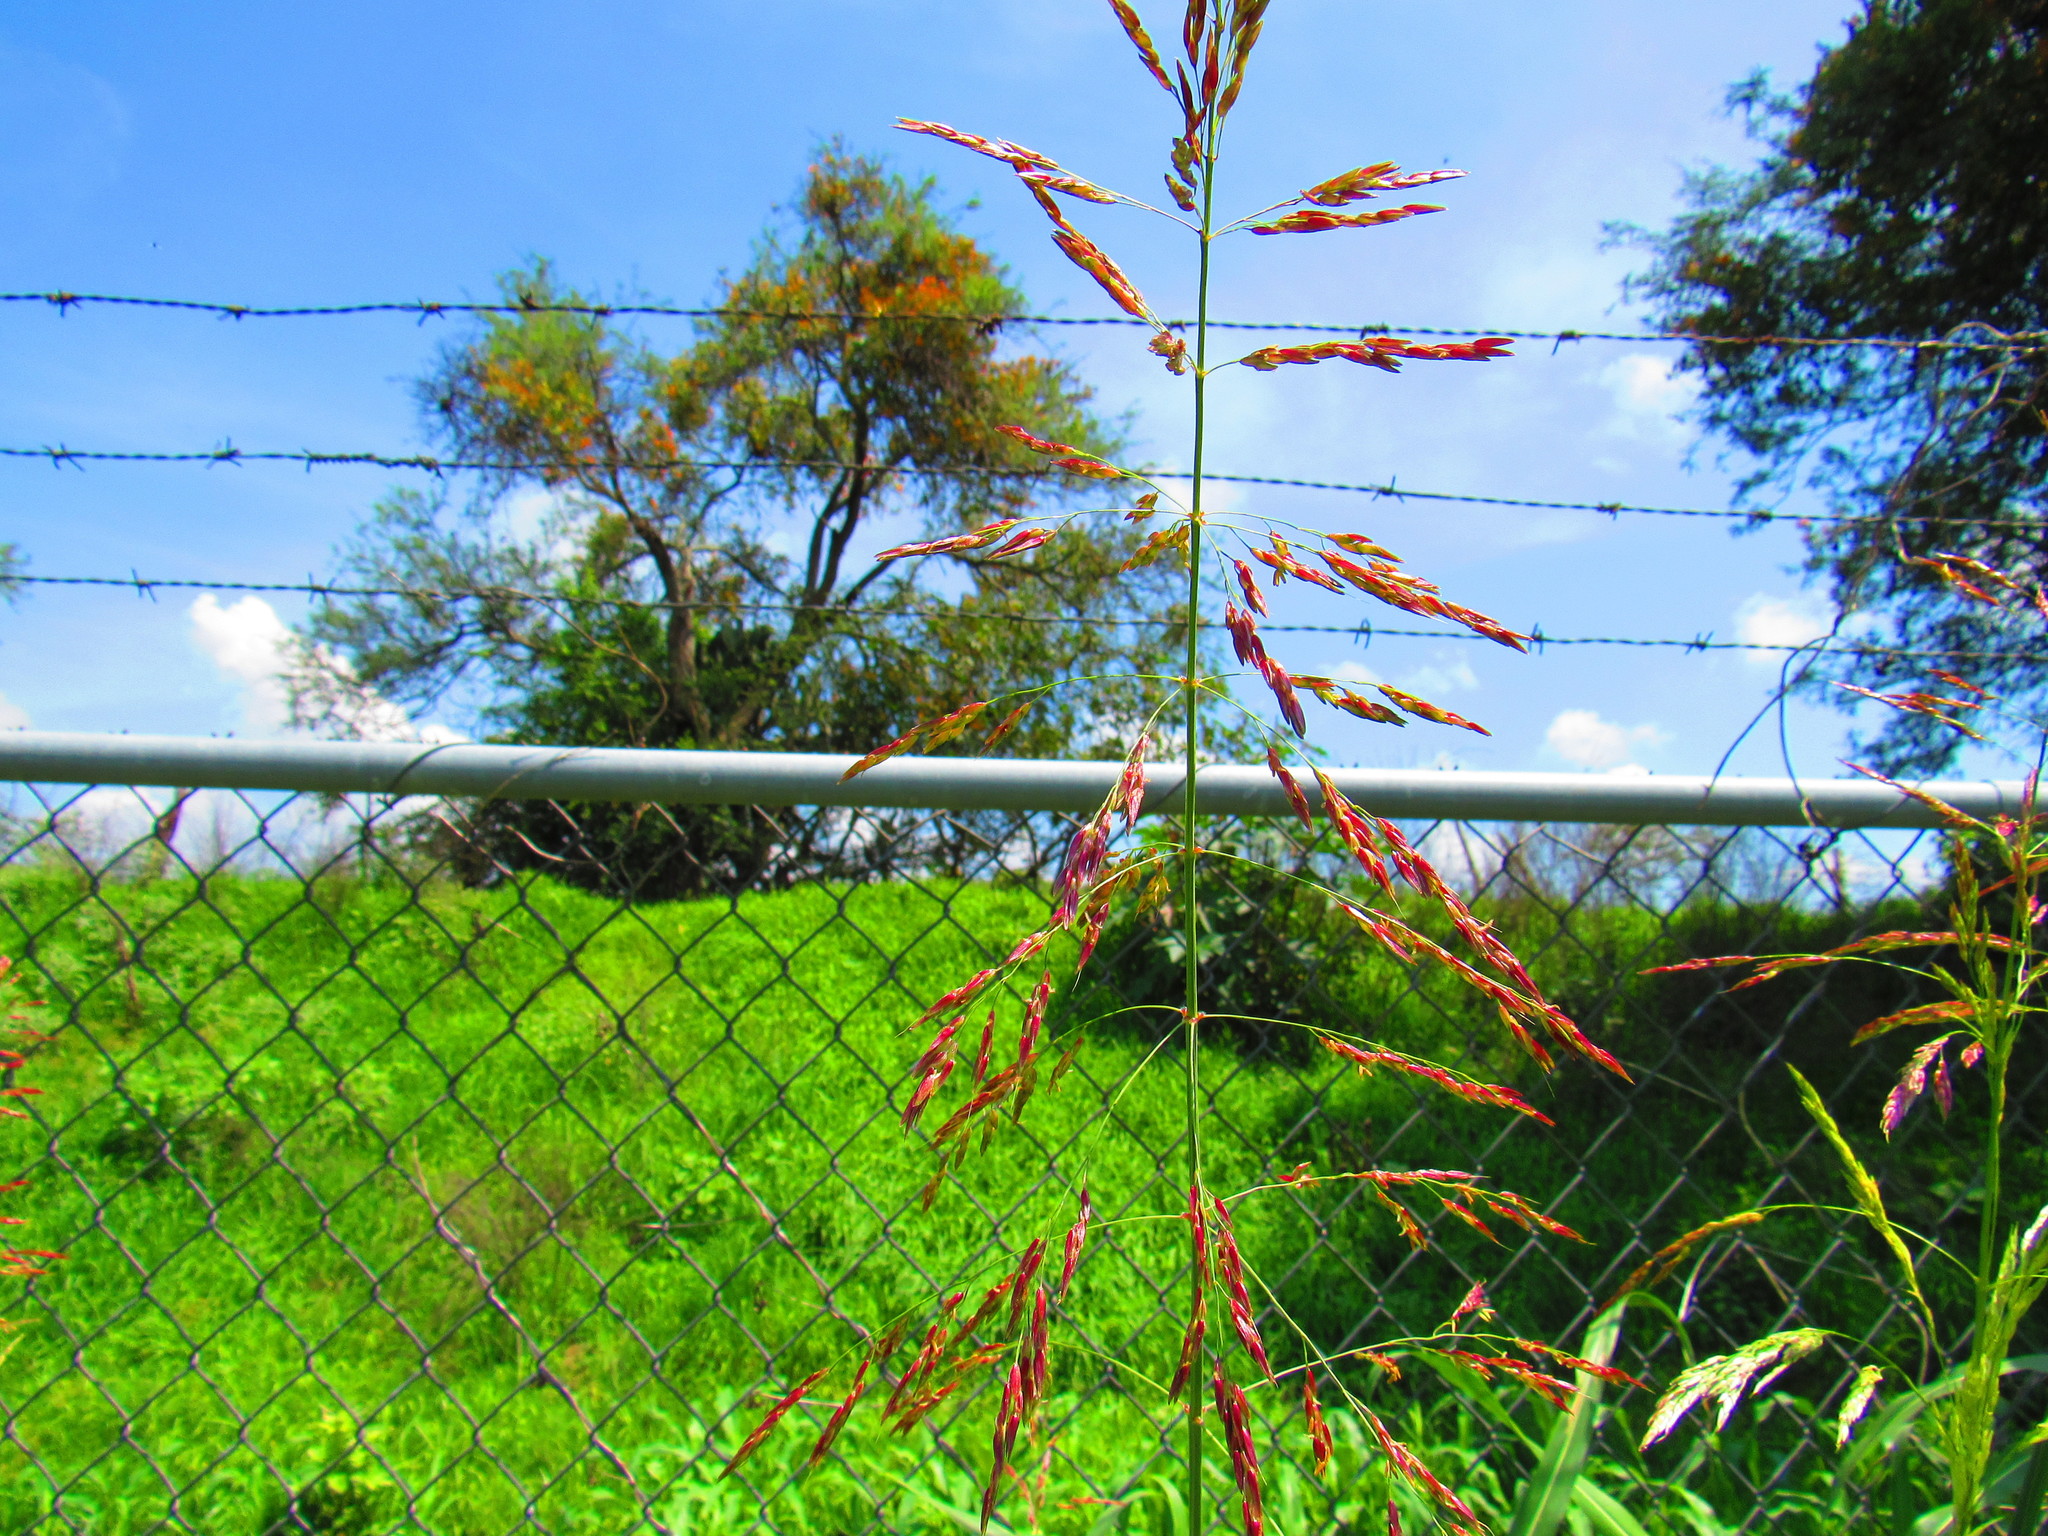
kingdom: Plantae
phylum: Tracheophyta
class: Liliopsida
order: Poales
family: Poaceae
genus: Sorghum
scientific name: Sorghum halepense
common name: Johnson-grass
